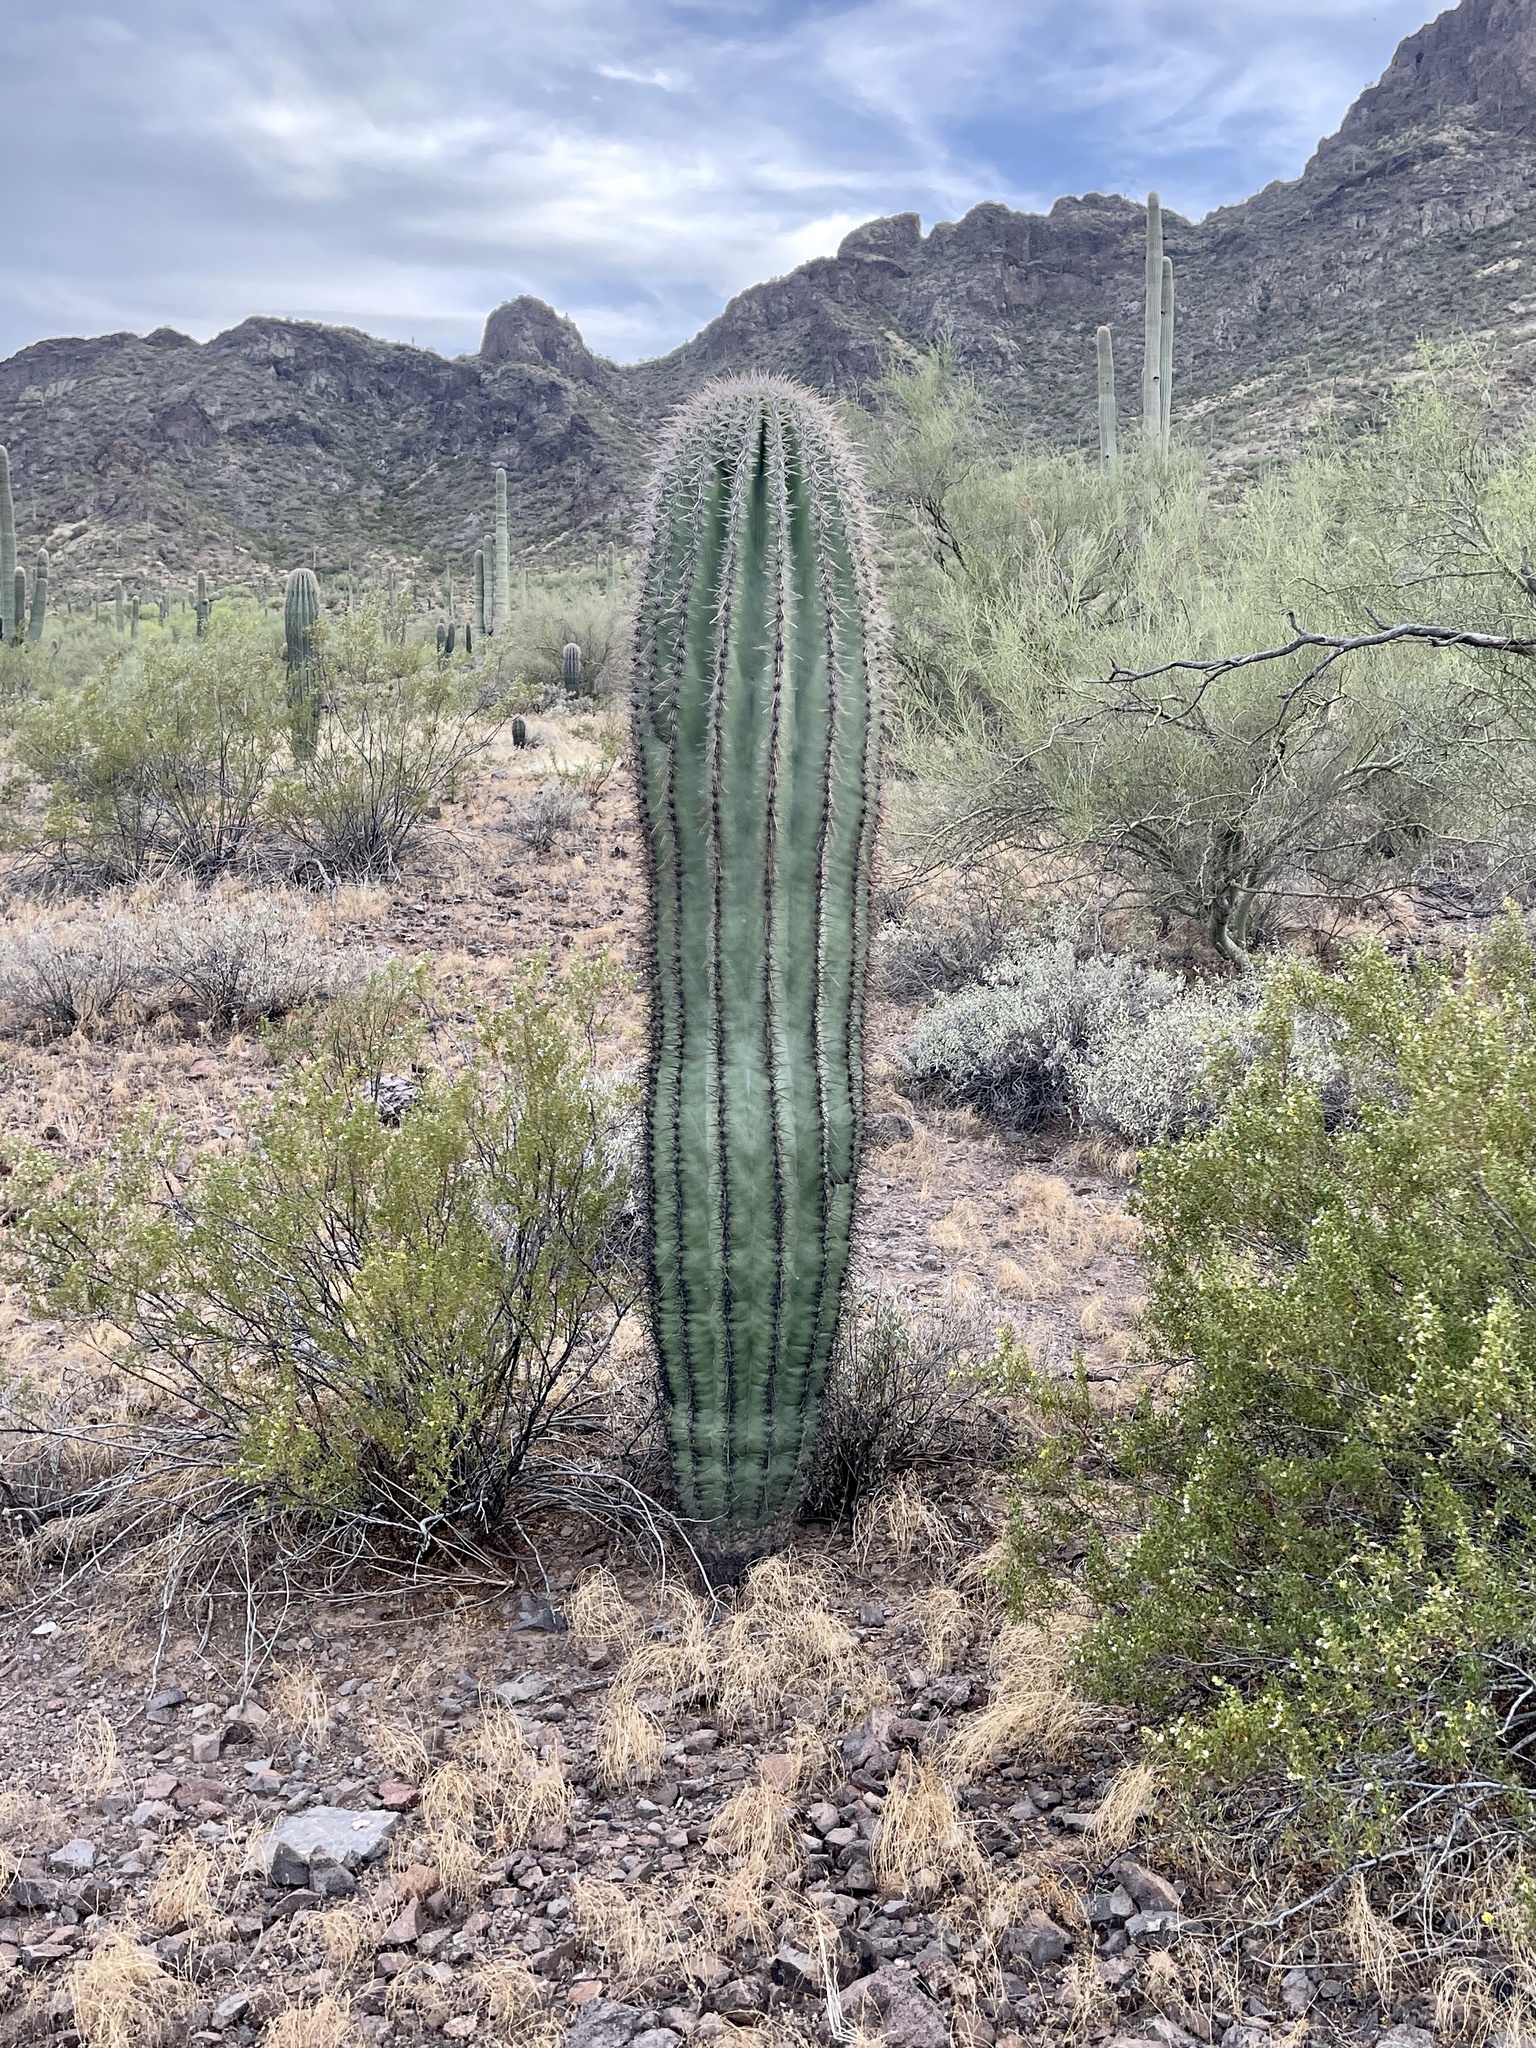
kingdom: Plantae
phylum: Tracheophyta
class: Magnoliopsida
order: Caryophyllales
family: Cactaceae
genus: Carnegiea
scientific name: Carnegiea gigantea
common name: Saguaro
